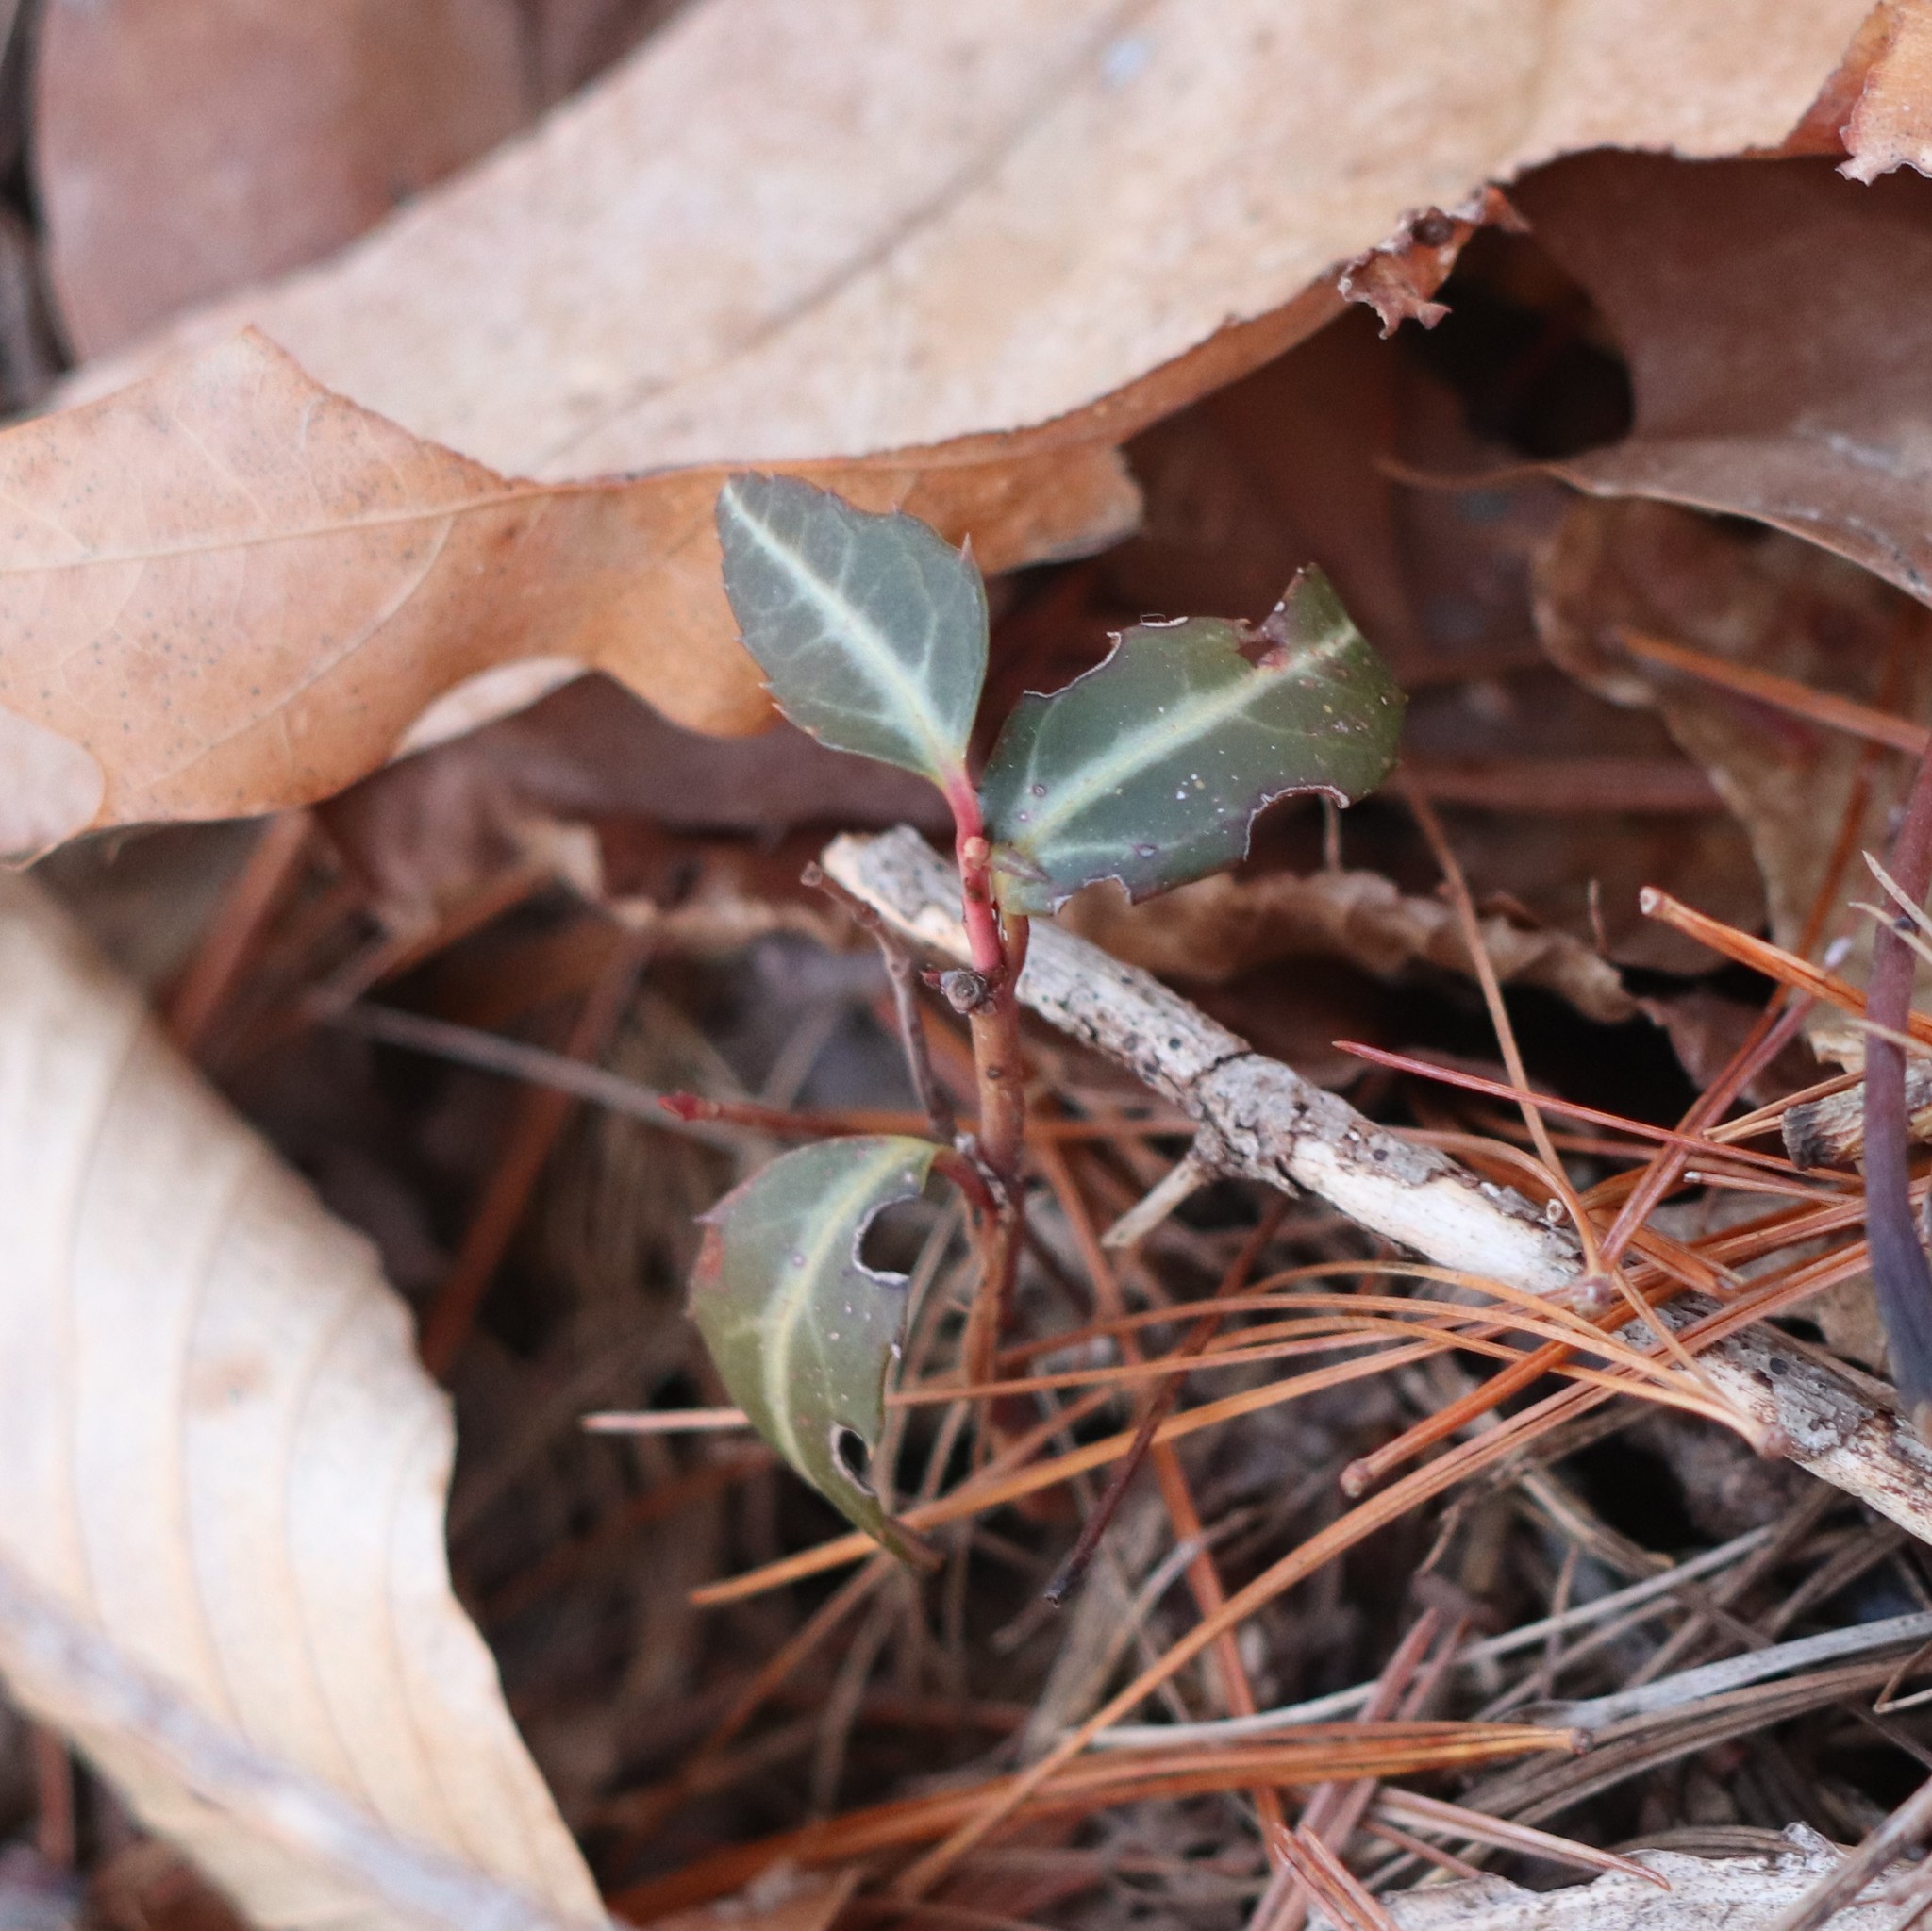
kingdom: Plantae
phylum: Tracheophyta
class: Magnoliopsida
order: Ericales
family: Ericaceae
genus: Chimaphila
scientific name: Chimaphila maculata
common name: Spotted pipsissewa
